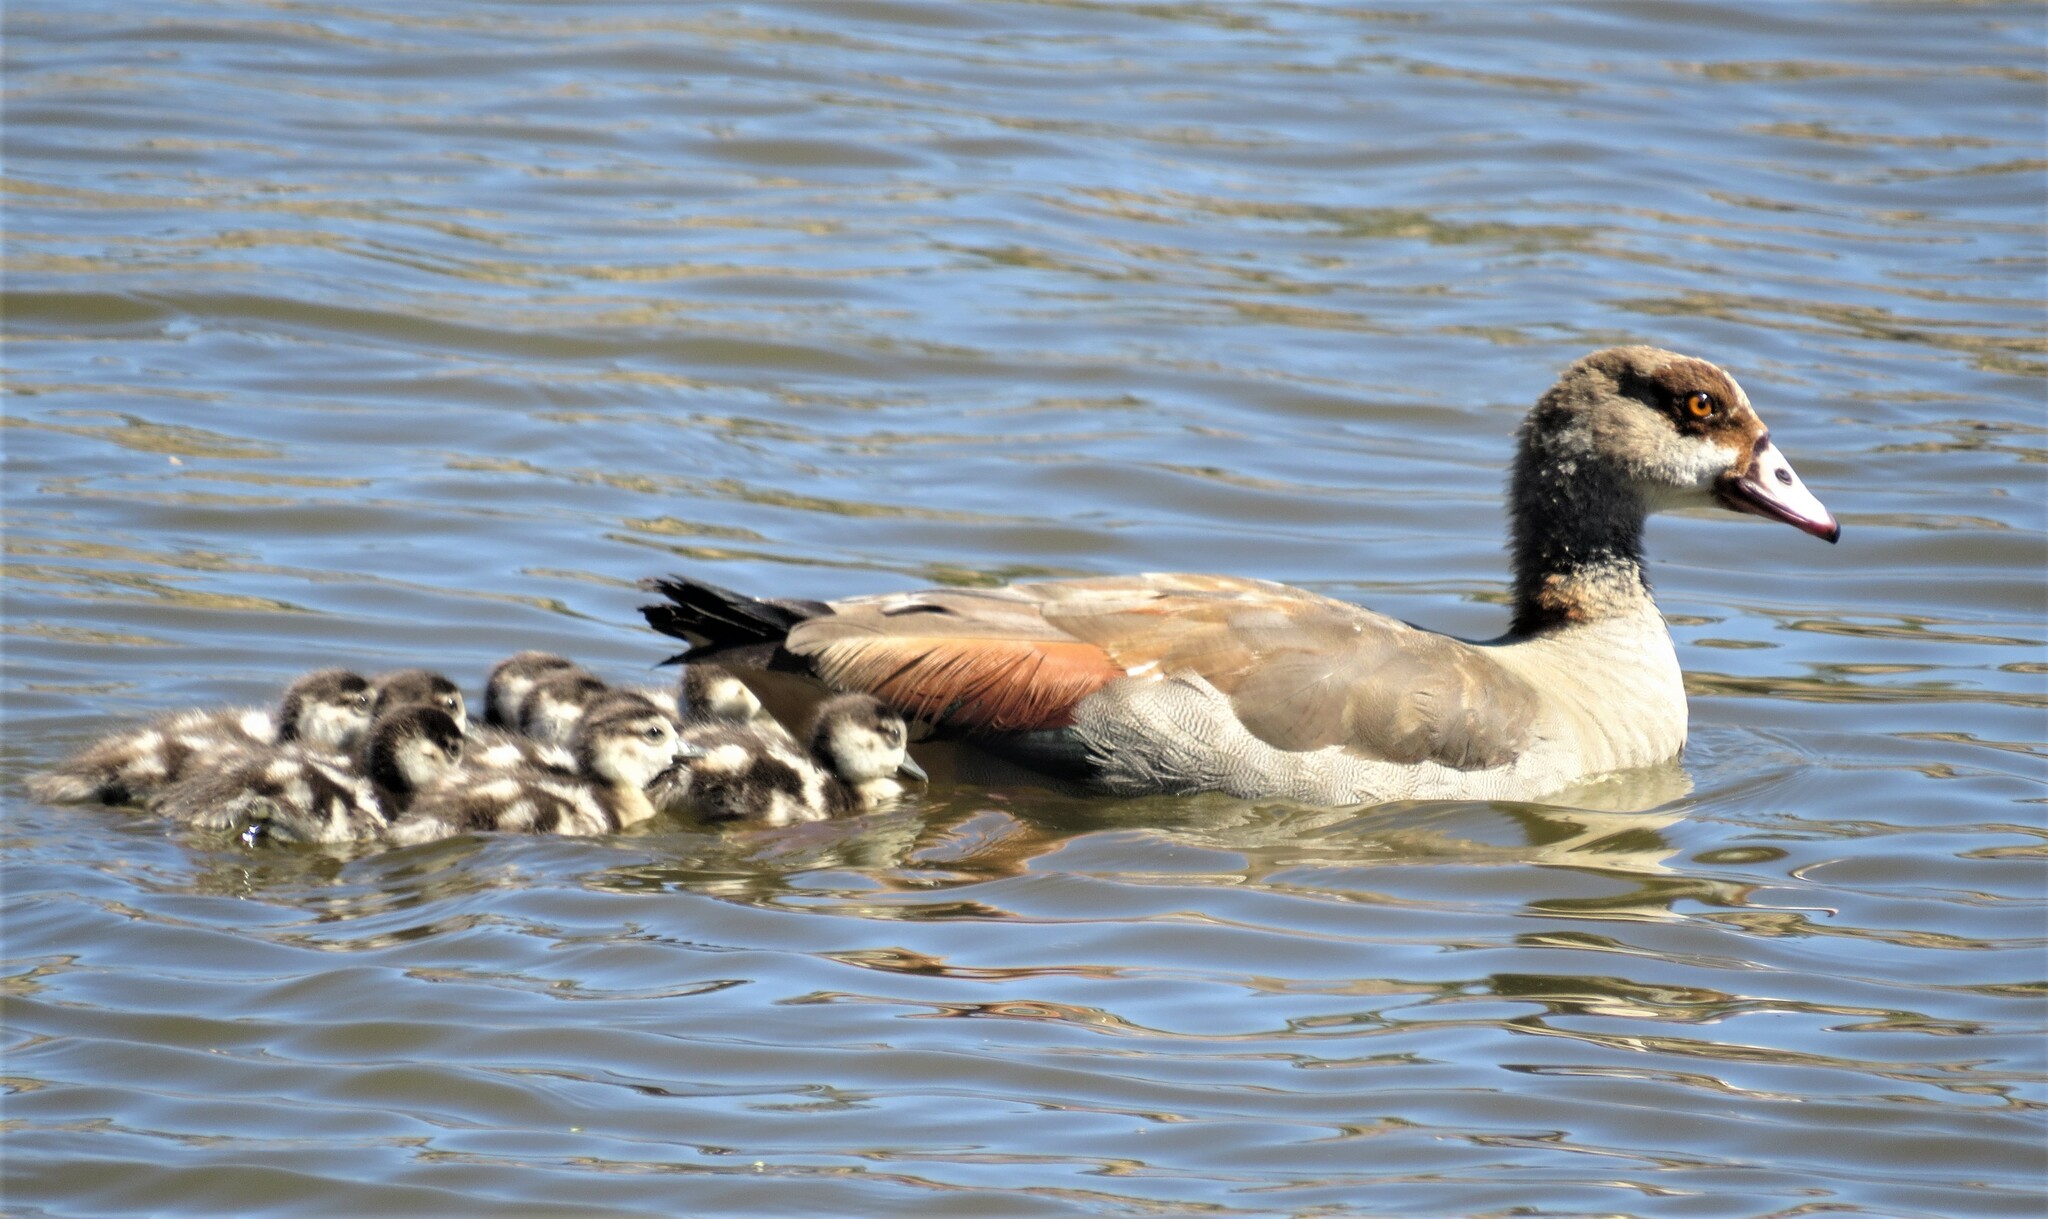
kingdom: Animalia
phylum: Chordata
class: Aves
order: Anseriformes
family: Anatidae
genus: Alopochen
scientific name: Alopochen aegyptiaca
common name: Egyptian goose
